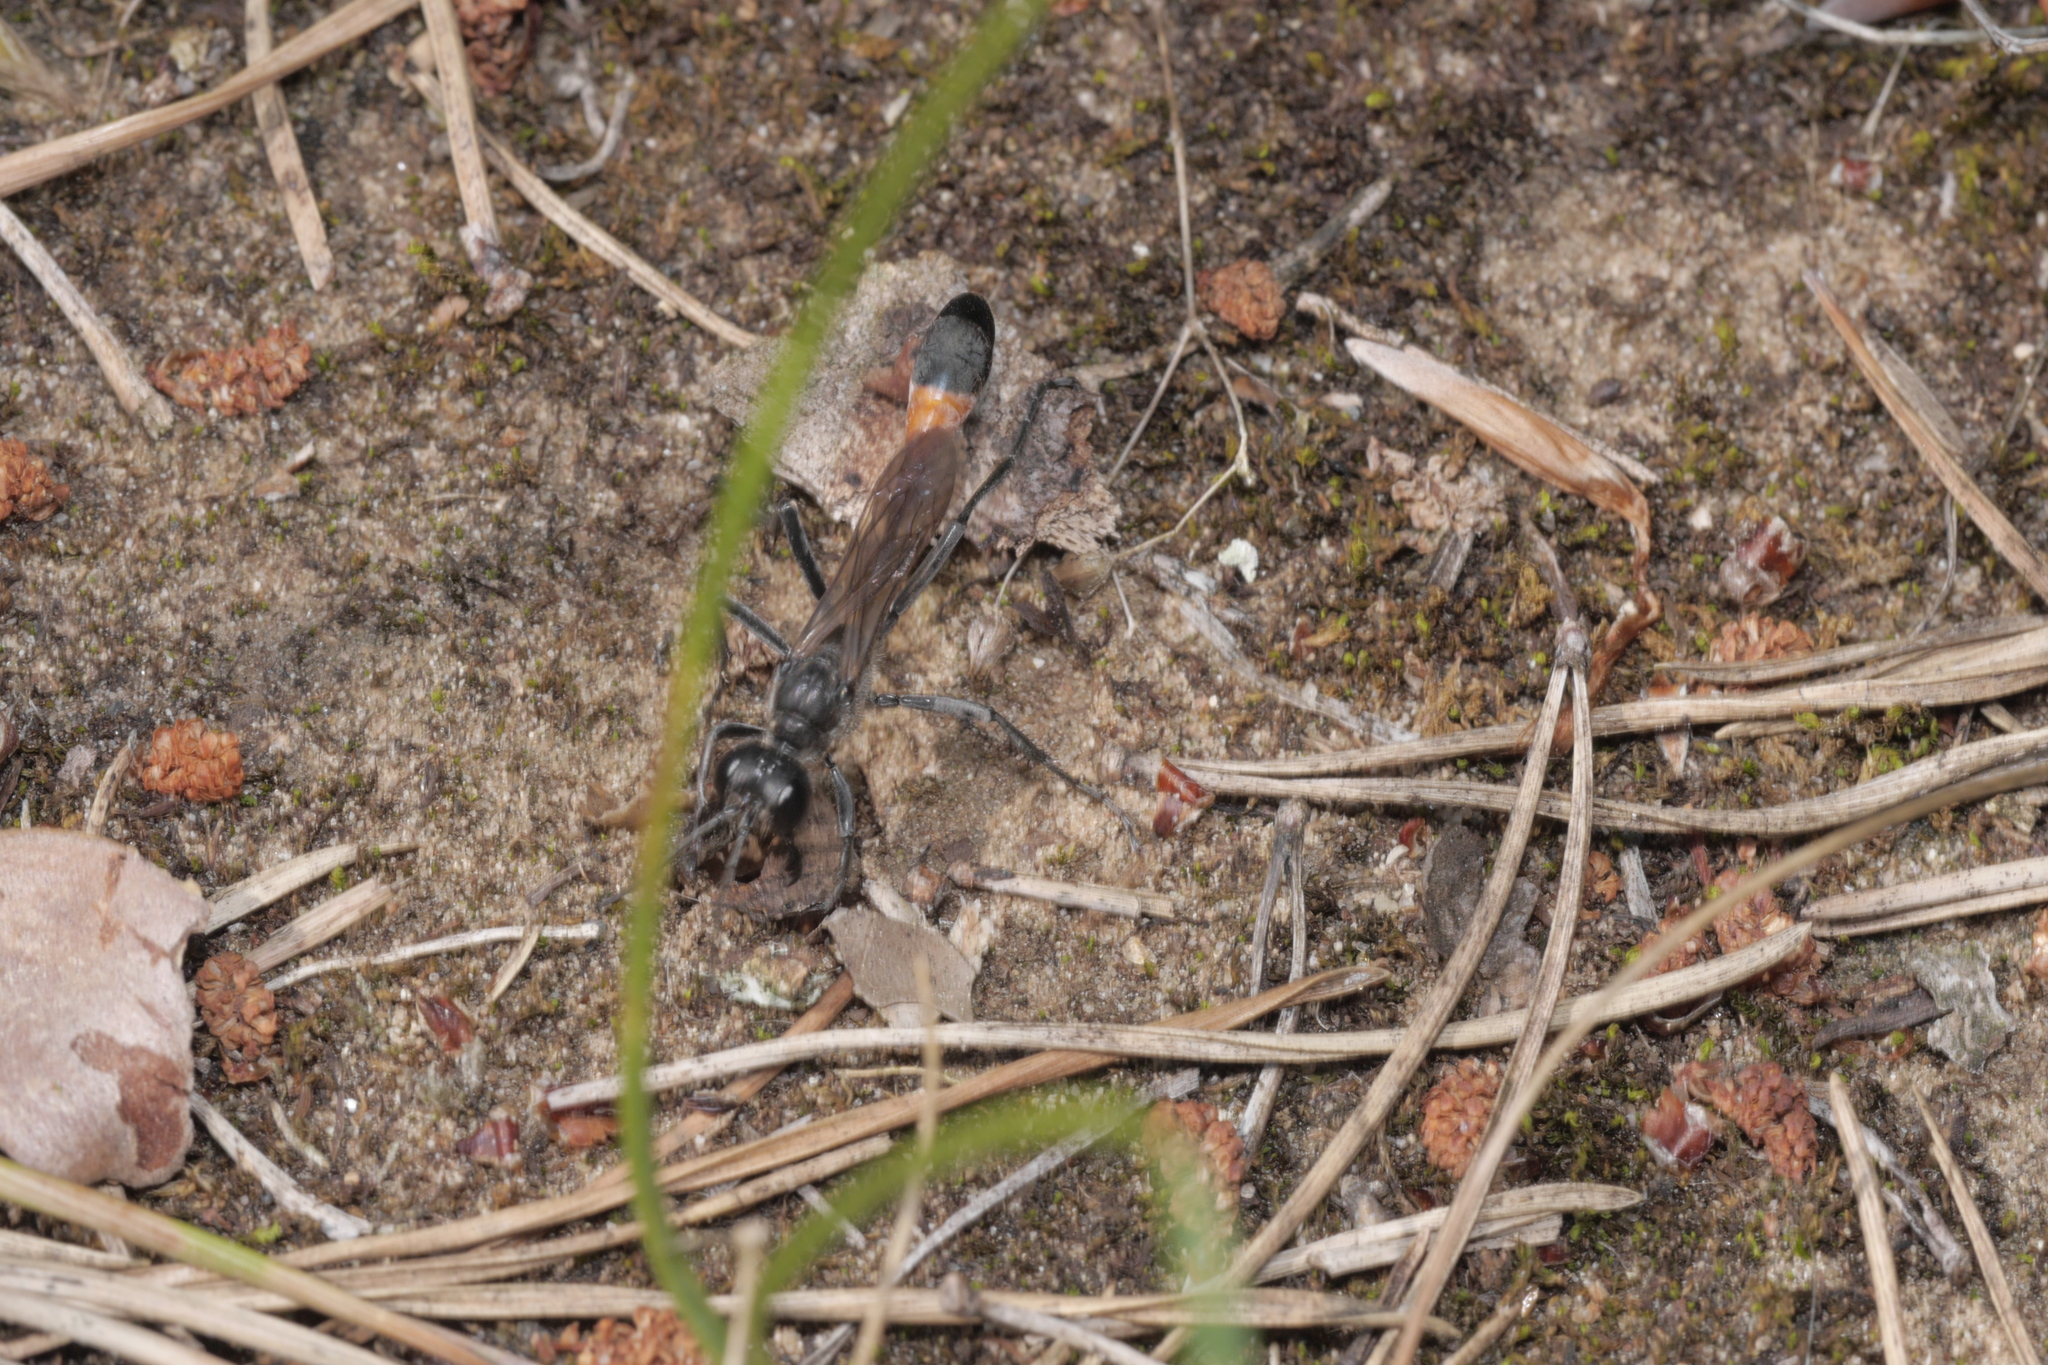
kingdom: Animalia
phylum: Arthropoda
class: Insecta
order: Hymenoptera
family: Sphecidae
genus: Ammophila
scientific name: Ammophila sabulosa
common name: Red banded sand wasp
